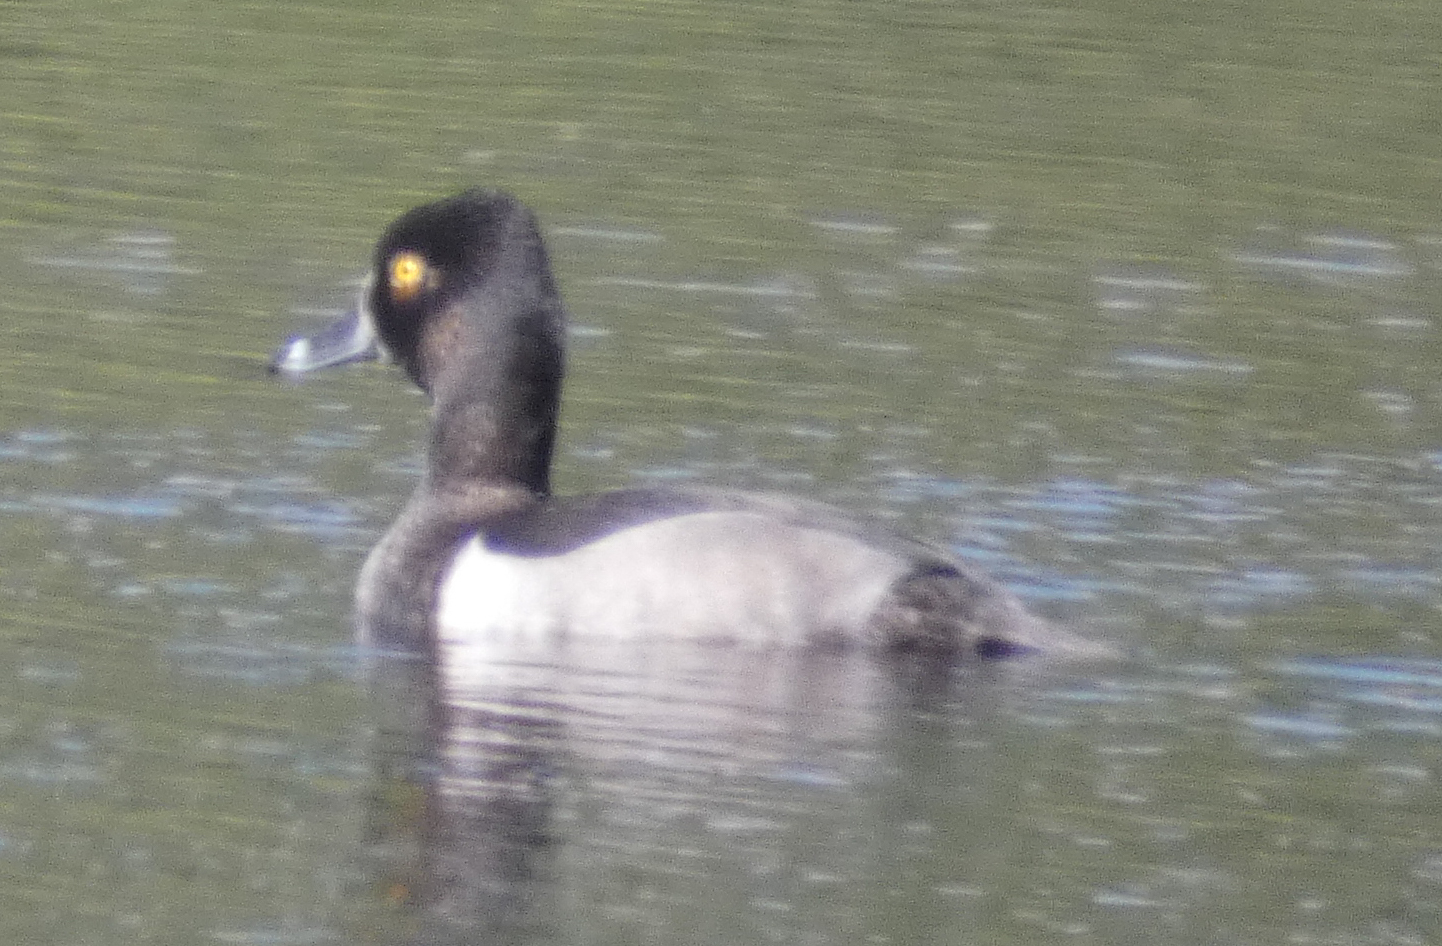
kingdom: Animalia
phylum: Chordata
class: Aves
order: Anseriformes
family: Anatidae
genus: Aythya
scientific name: Aythya collaris
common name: Ring-necked duck
